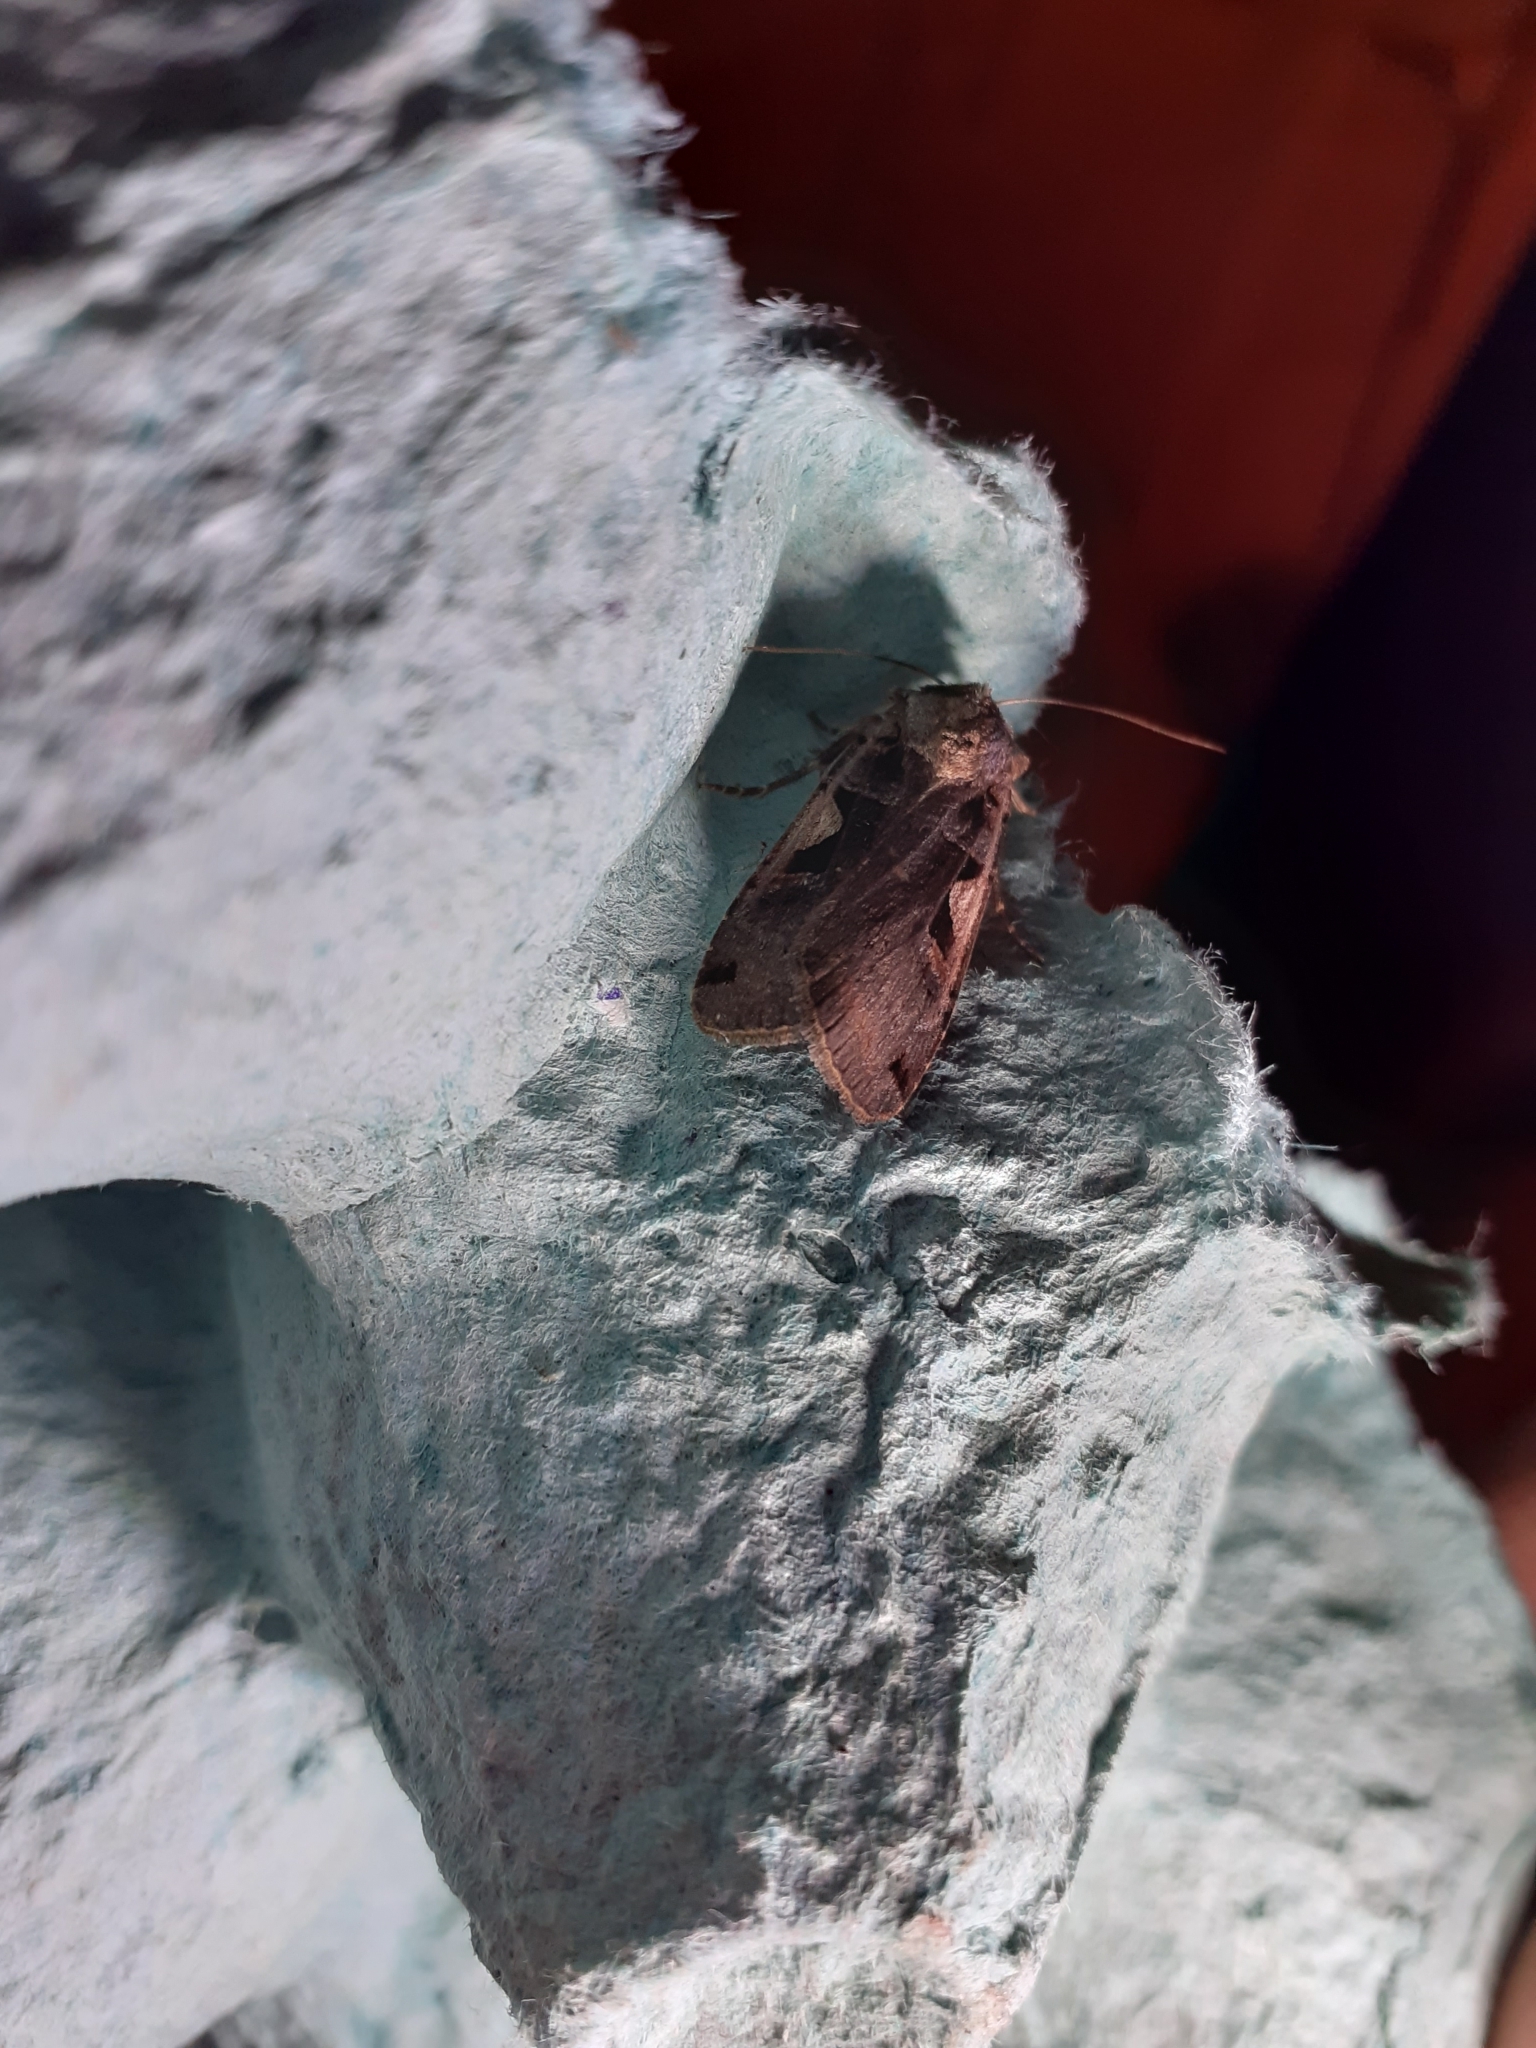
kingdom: Animalia
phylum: Arthropoda
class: Insecta
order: Lepidoptera
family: Noctuidae
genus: Xestia
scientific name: Xestia c-nigrum
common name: Setaceous hebrew character
